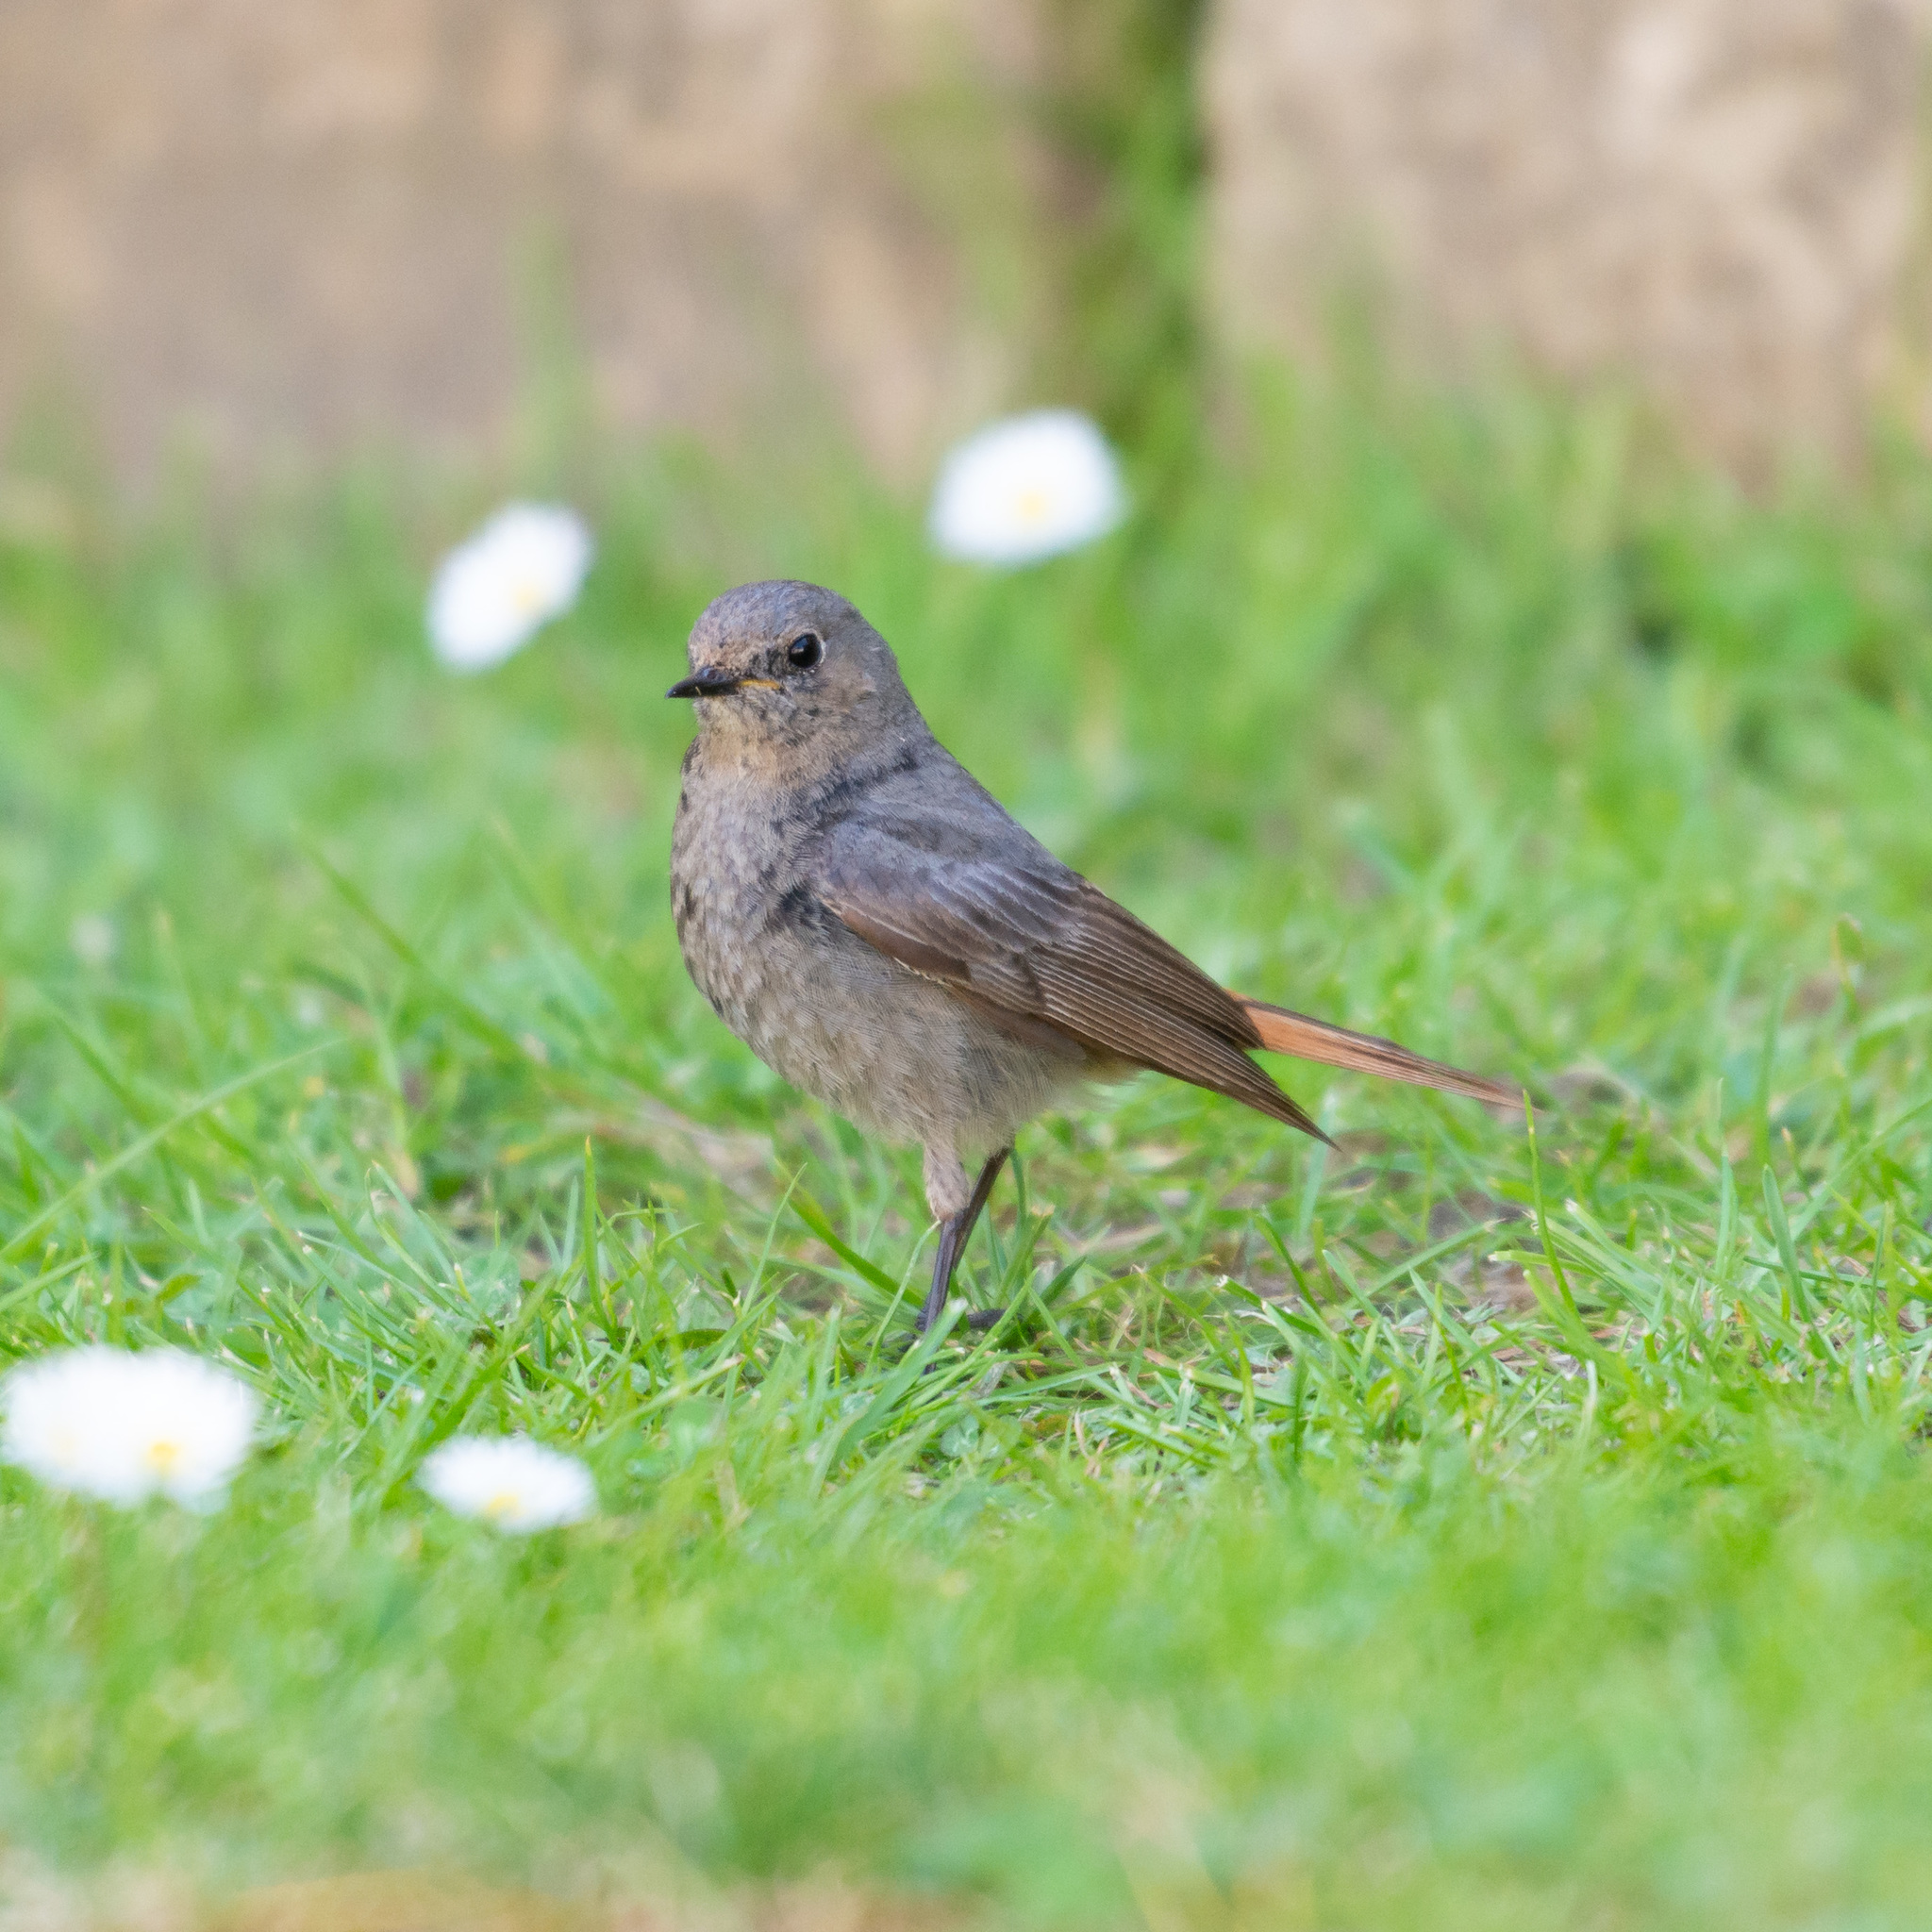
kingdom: Animalia
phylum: Chordata
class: Aves
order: Passeriformes
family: Muscicapidae
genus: Phoenicurus
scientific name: Phoenicurus ochruros
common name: Black redstart
